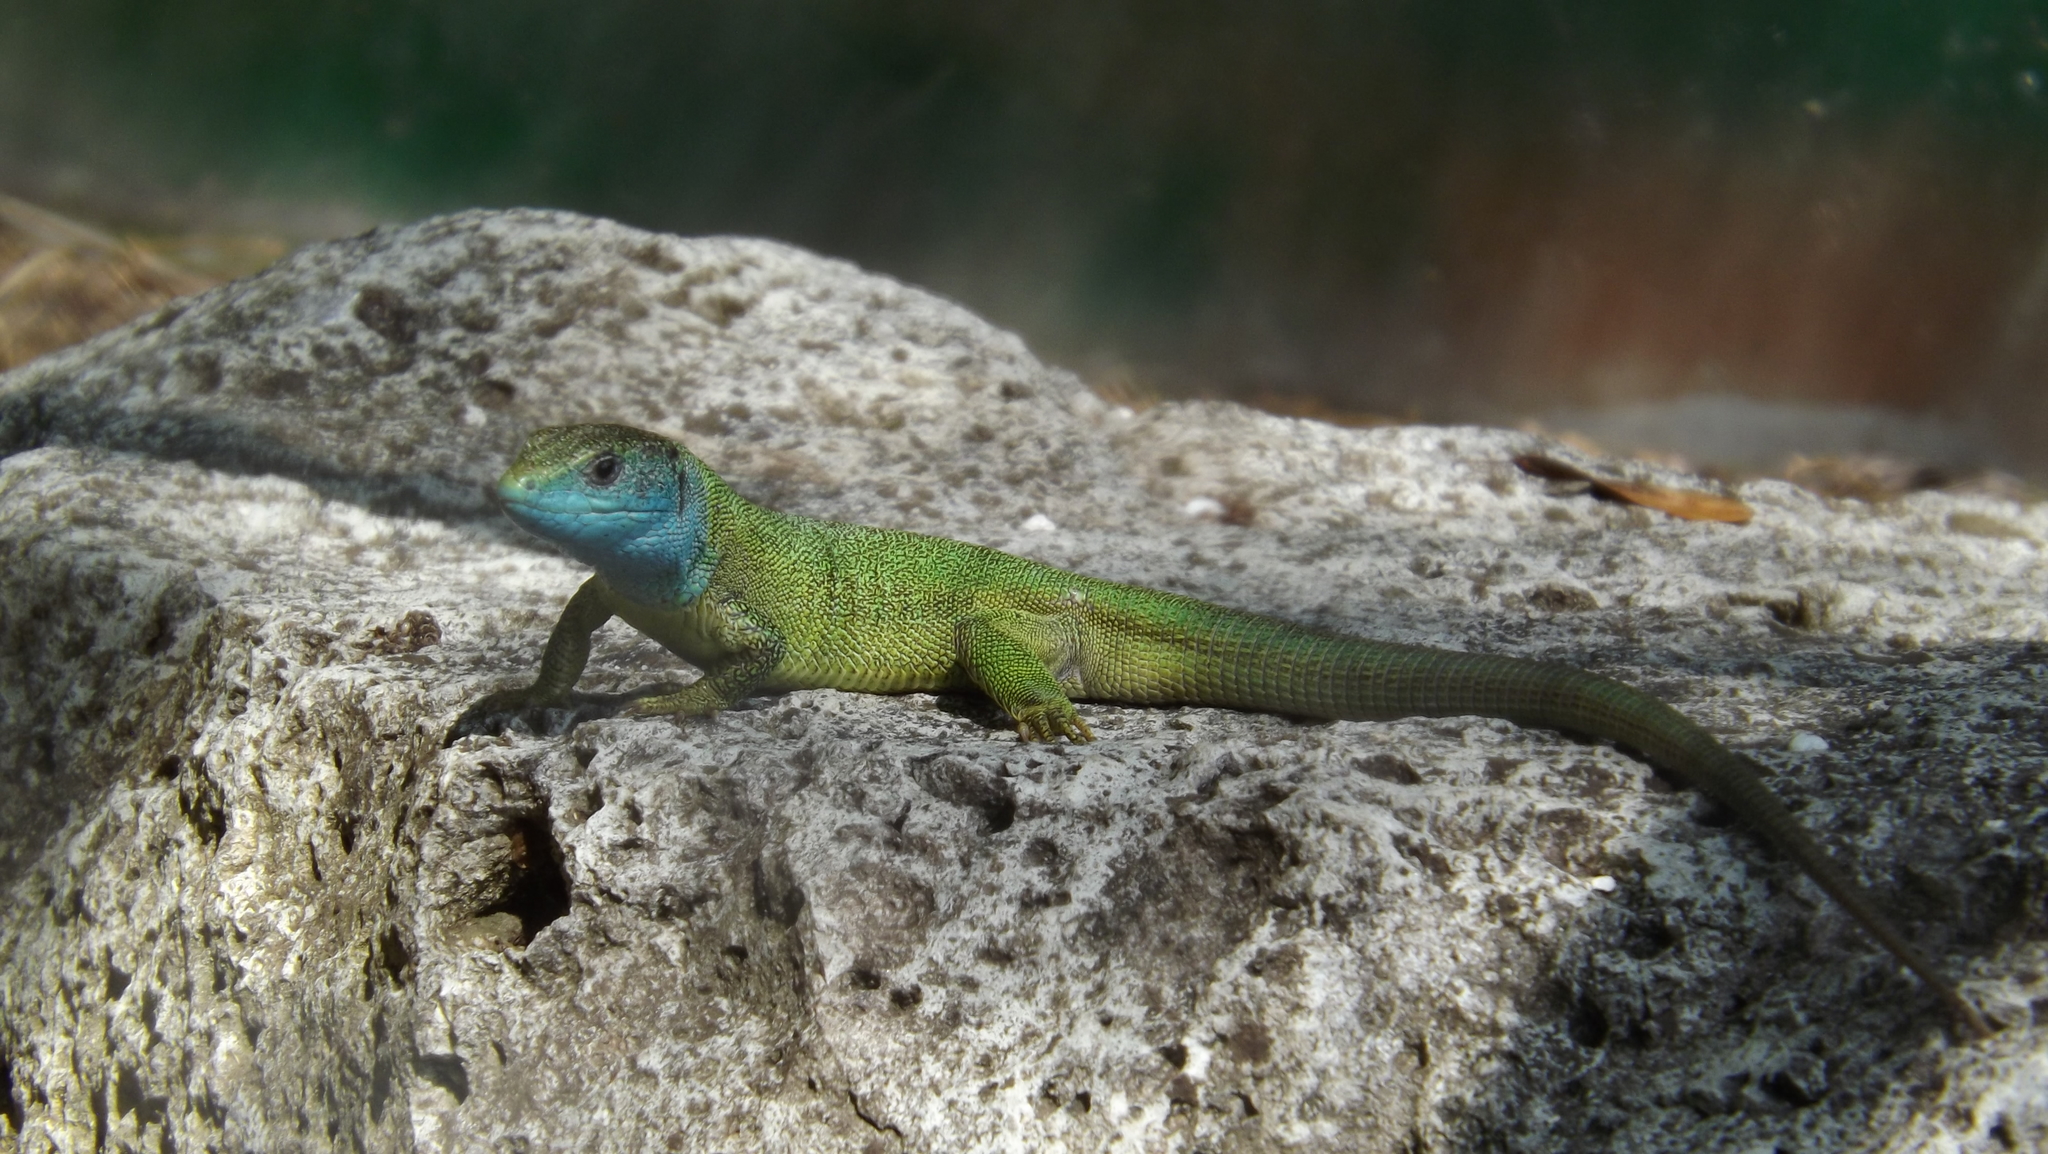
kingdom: Animalia
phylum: Chordata
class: Squamata
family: Lacertidae
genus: Lacerta
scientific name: Lacerta viridis
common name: European green lizard
